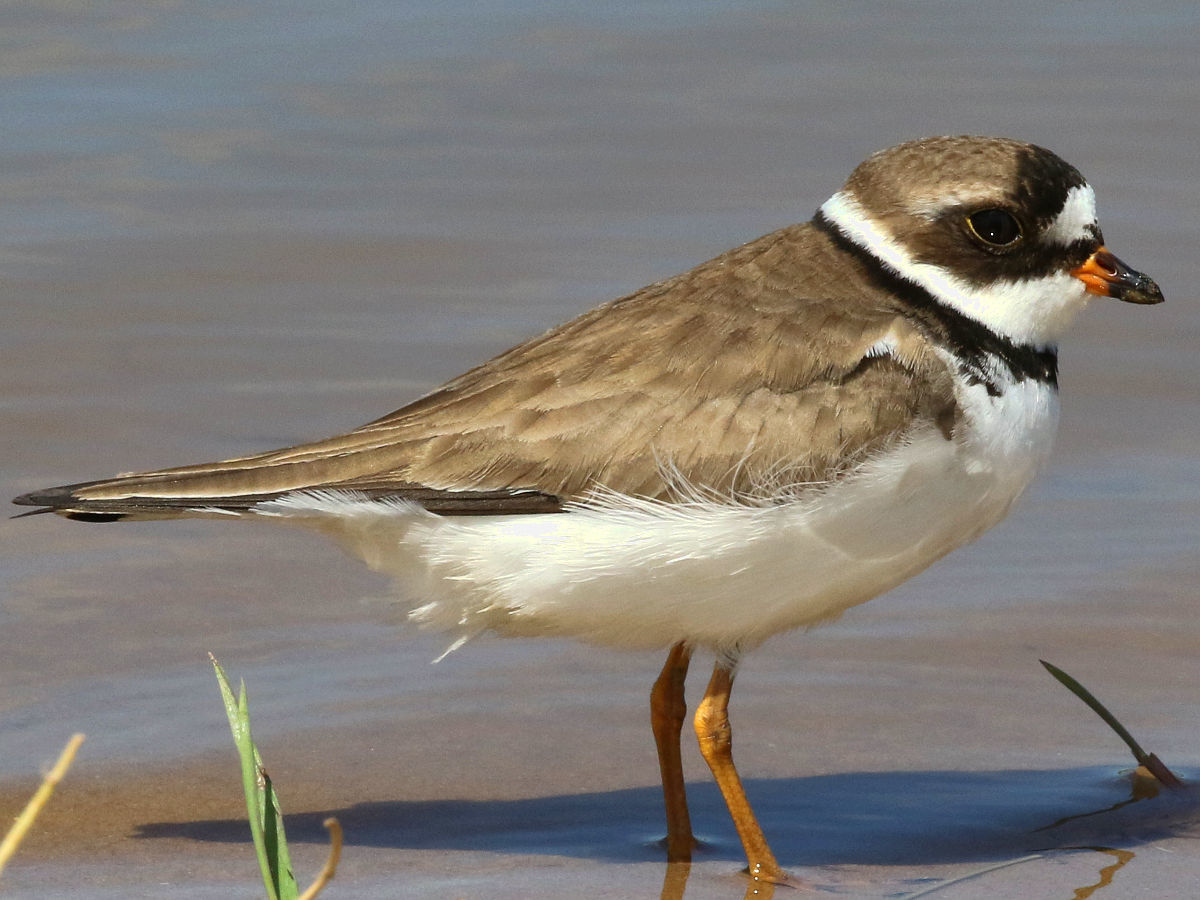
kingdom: Animalia
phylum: Chordata
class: Aves
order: Charadriiformes
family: Charadriidae
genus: Charadrius
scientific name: Charadrius semipalmatus
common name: Semipalmated plover
